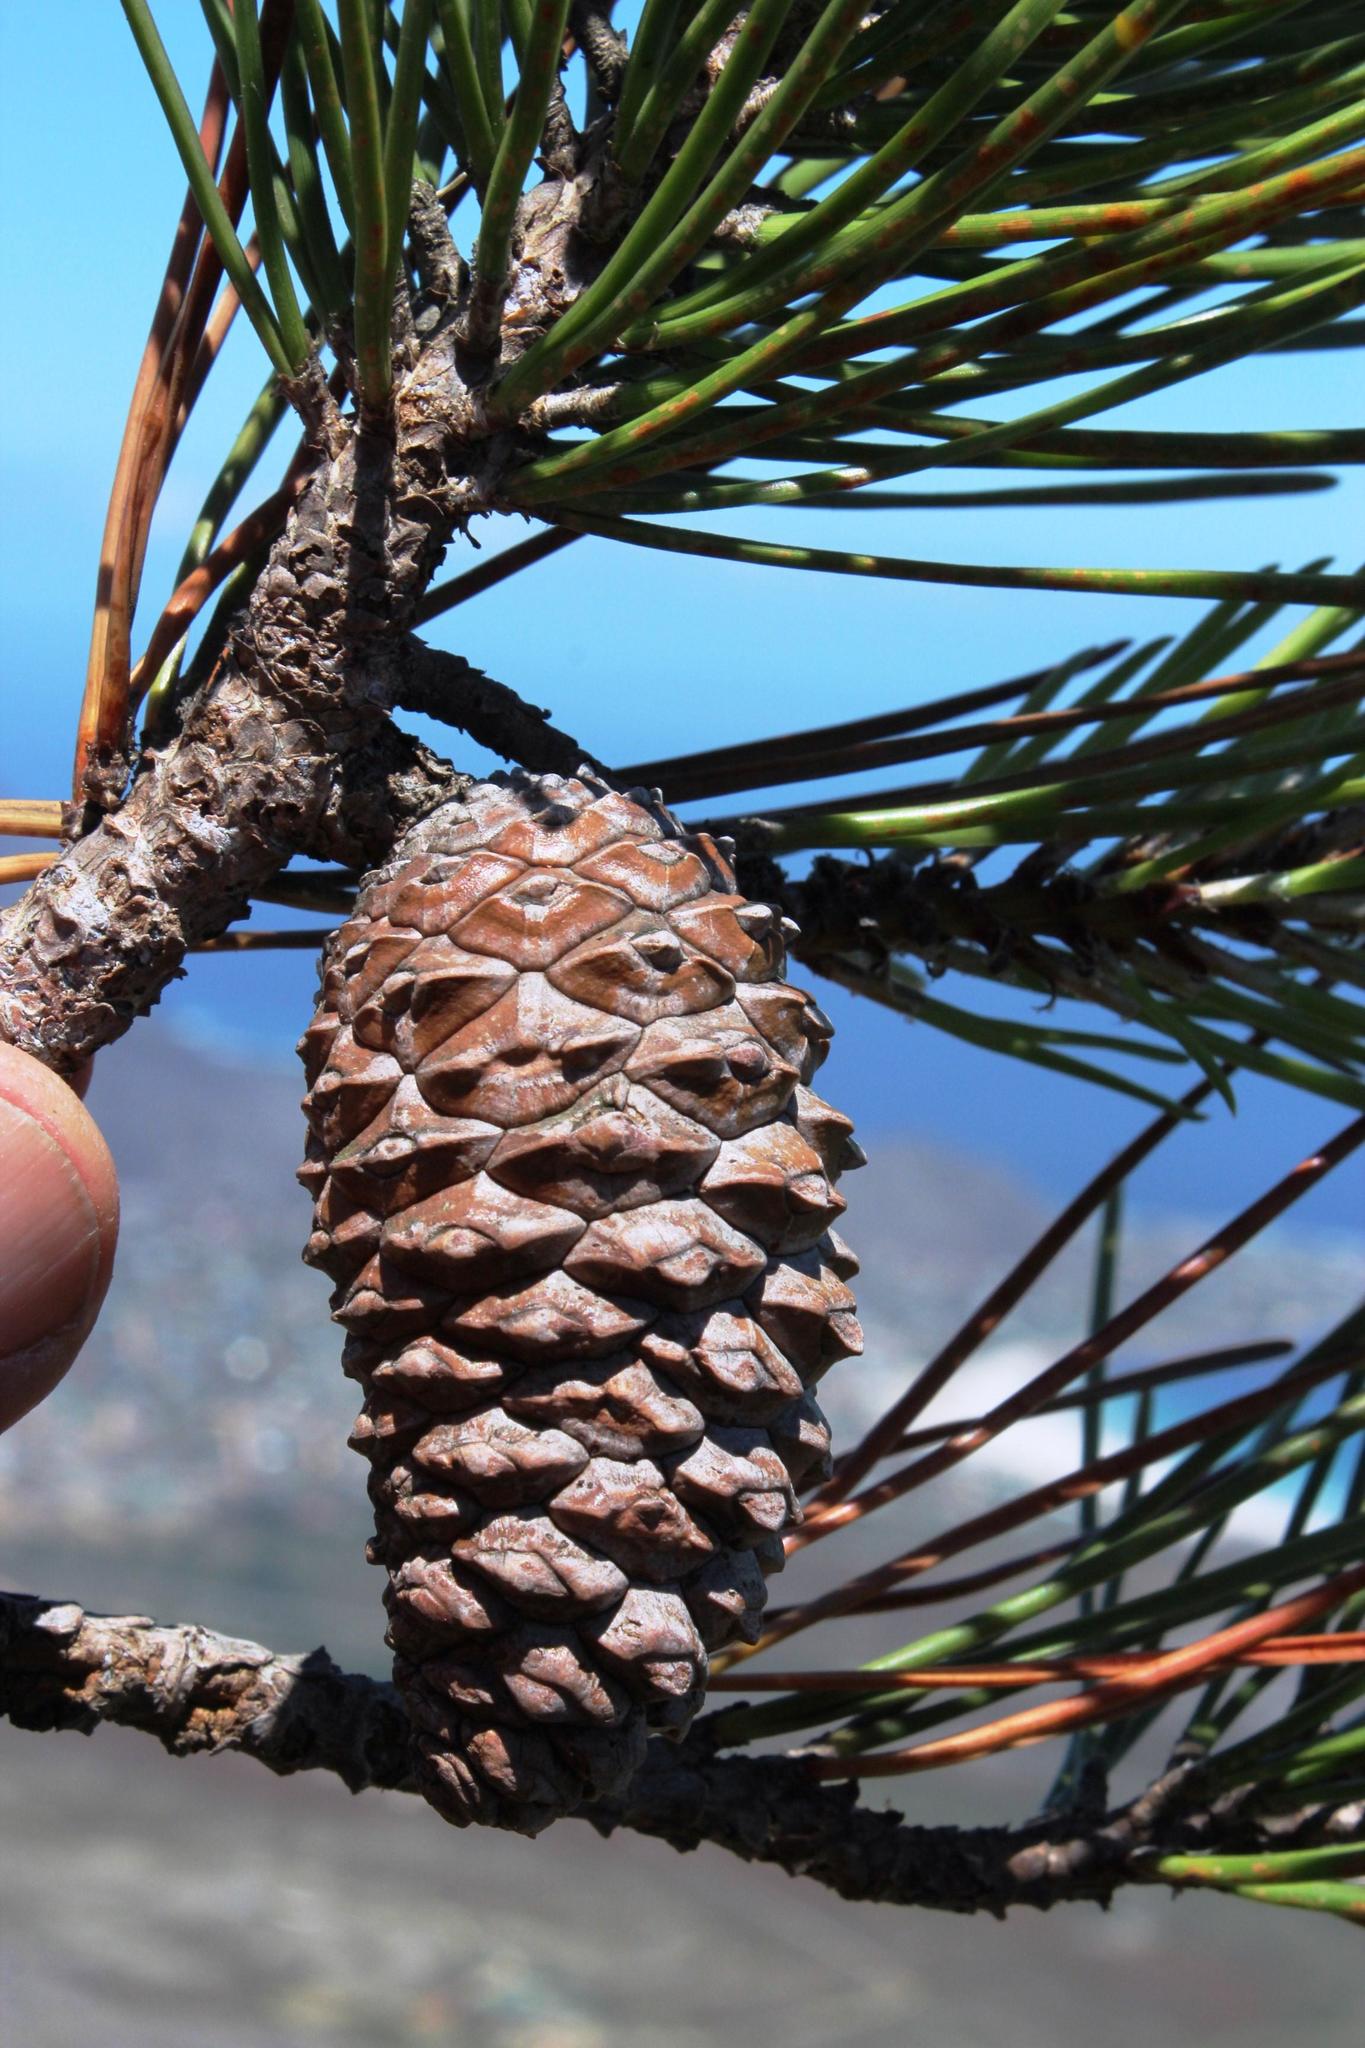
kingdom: Plantae
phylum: Tracheophyta
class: Pinopsida
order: Pinales
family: Pinaceae
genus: Pinus
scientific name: Pinus pinaster
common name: Maritime pine
